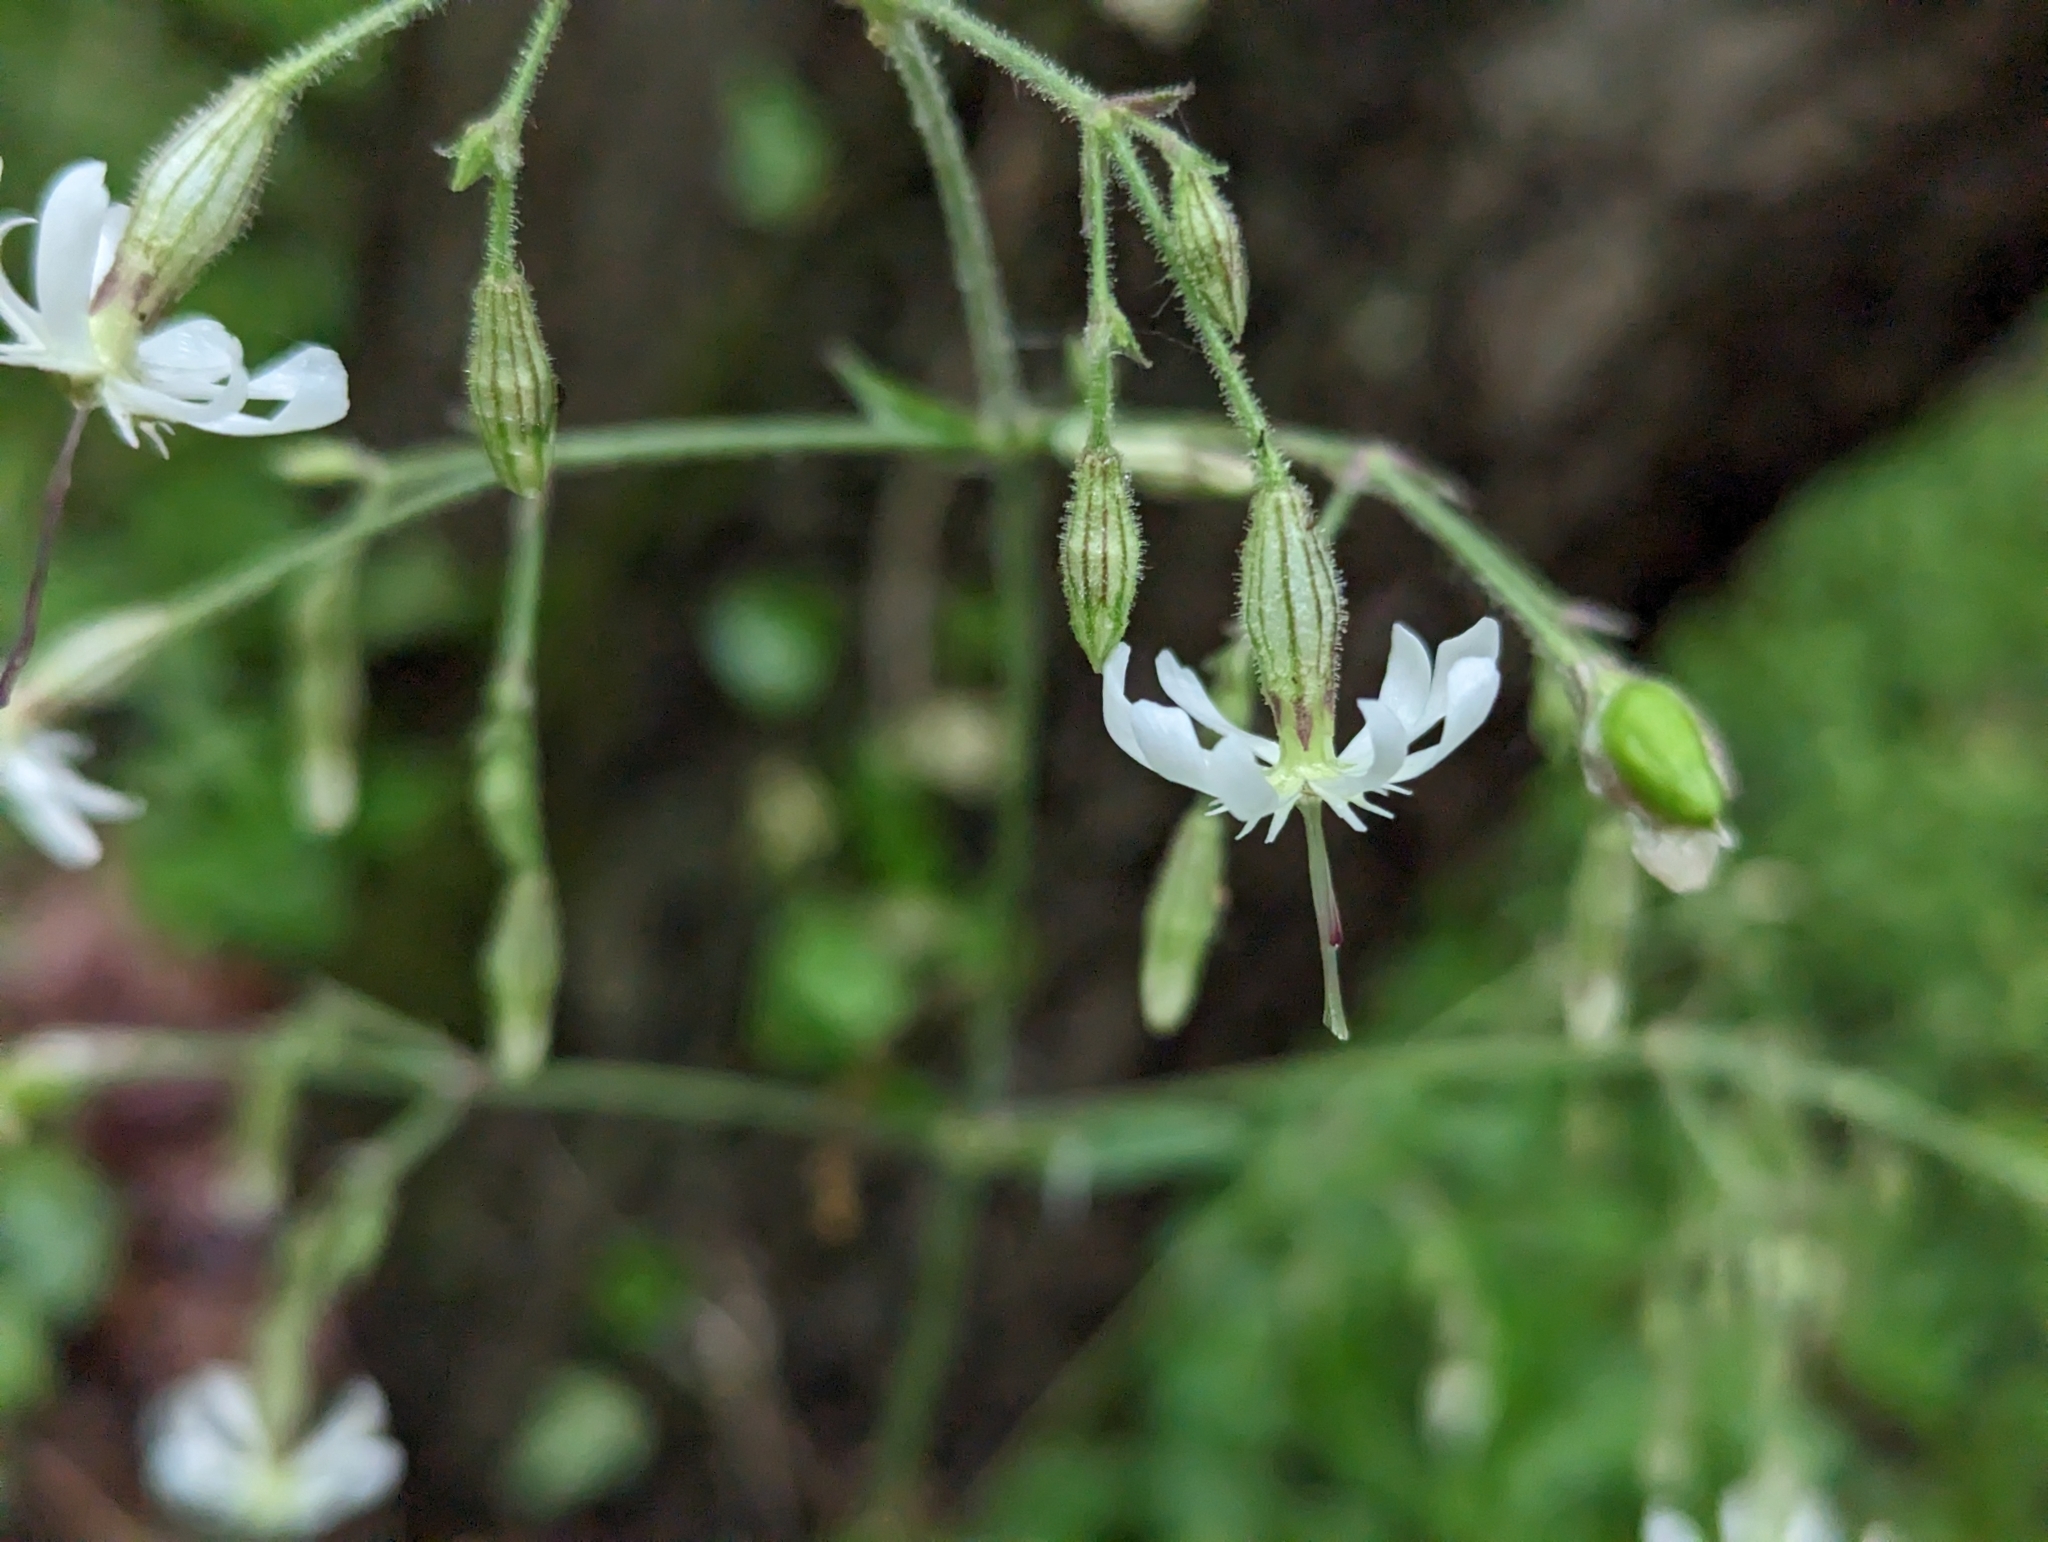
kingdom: Plantae
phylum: Tracheophyta
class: Magnoliopsida
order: Caryophyllales
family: Caryophyllaceae
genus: Silene
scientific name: Silene nutans
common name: Nottingham catchfly
